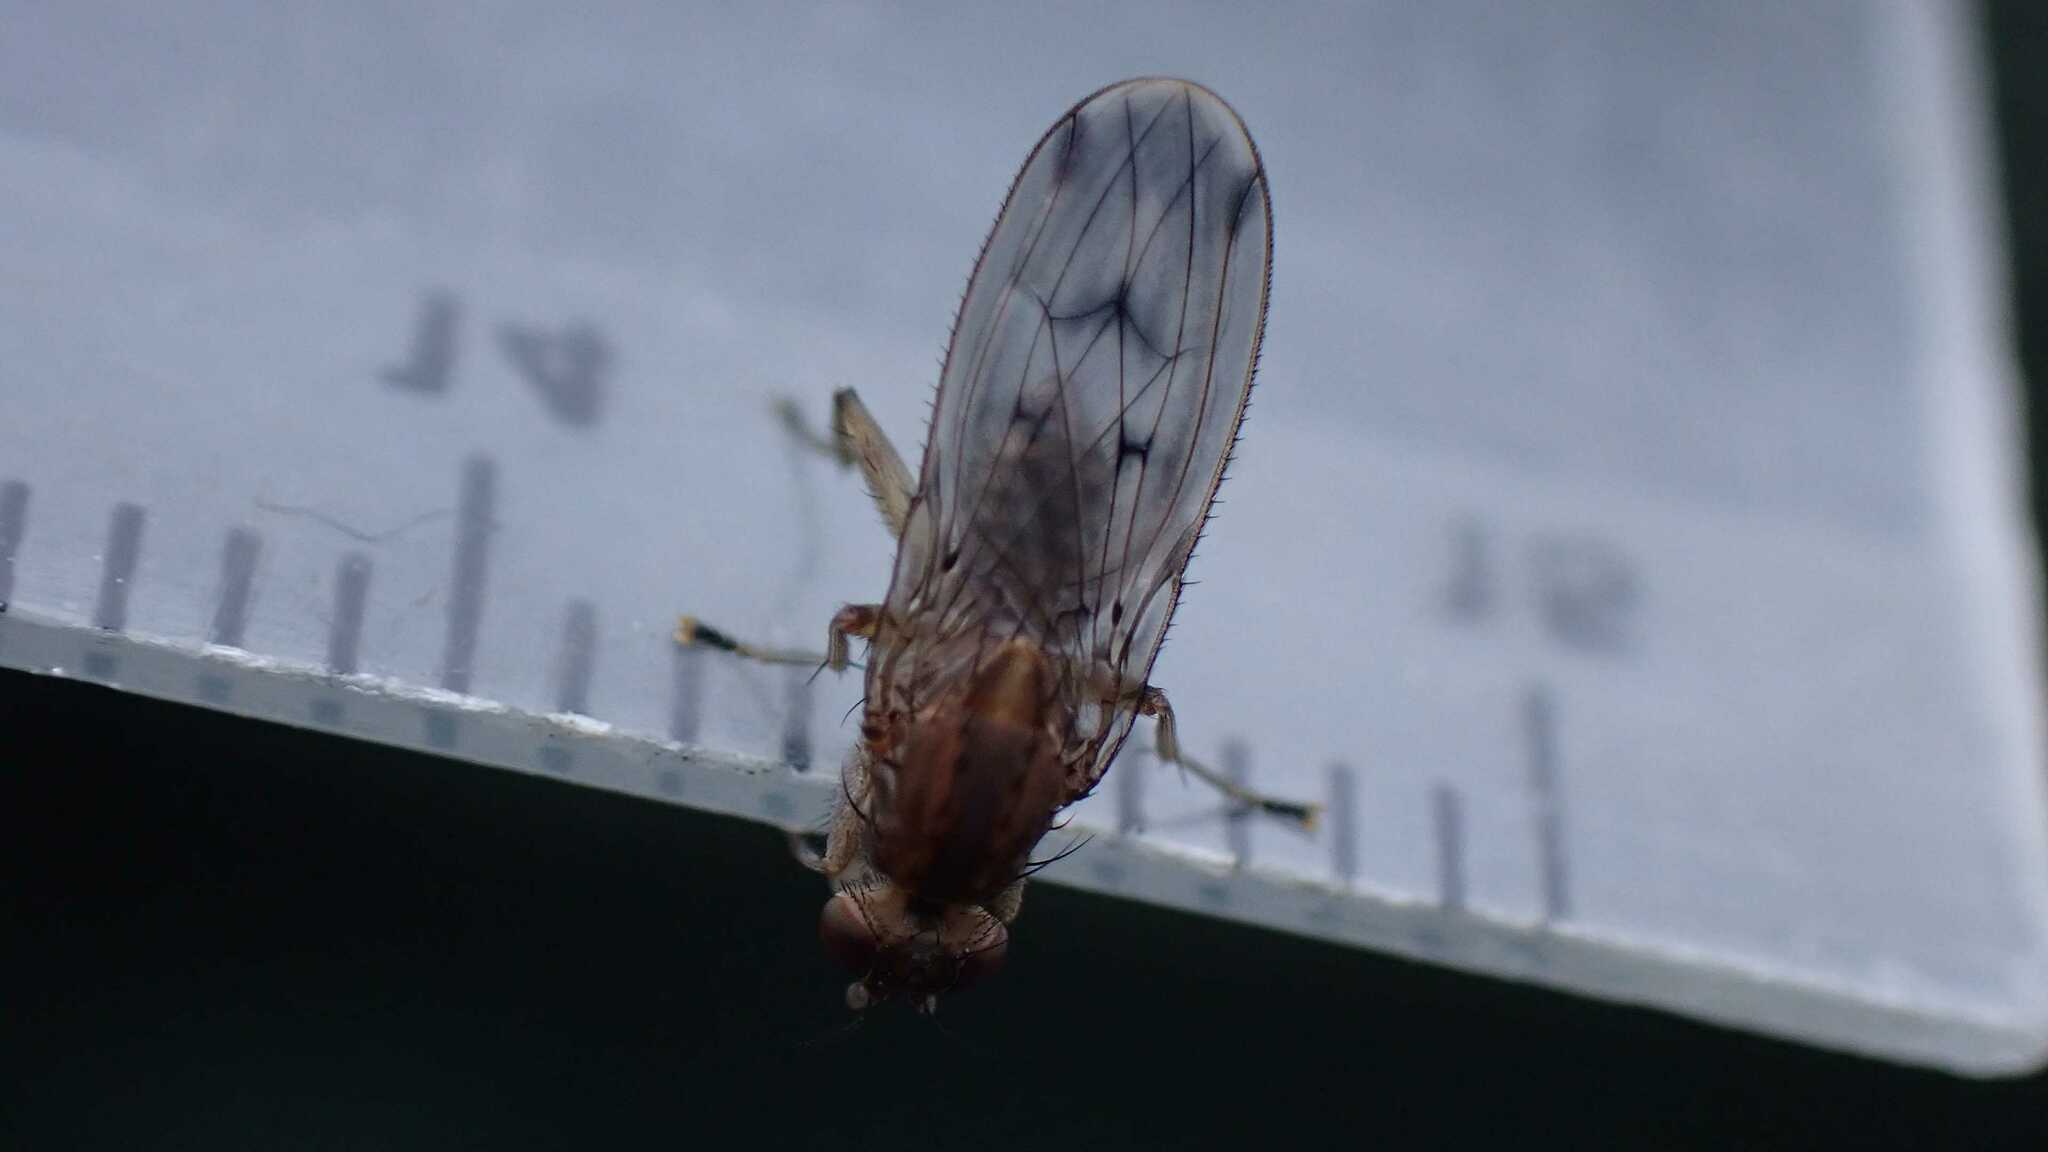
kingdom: Animalia
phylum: Arthropoda
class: Insecta
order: Diptera
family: Heleomyzidae
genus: Suillia
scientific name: Suillia variegata
